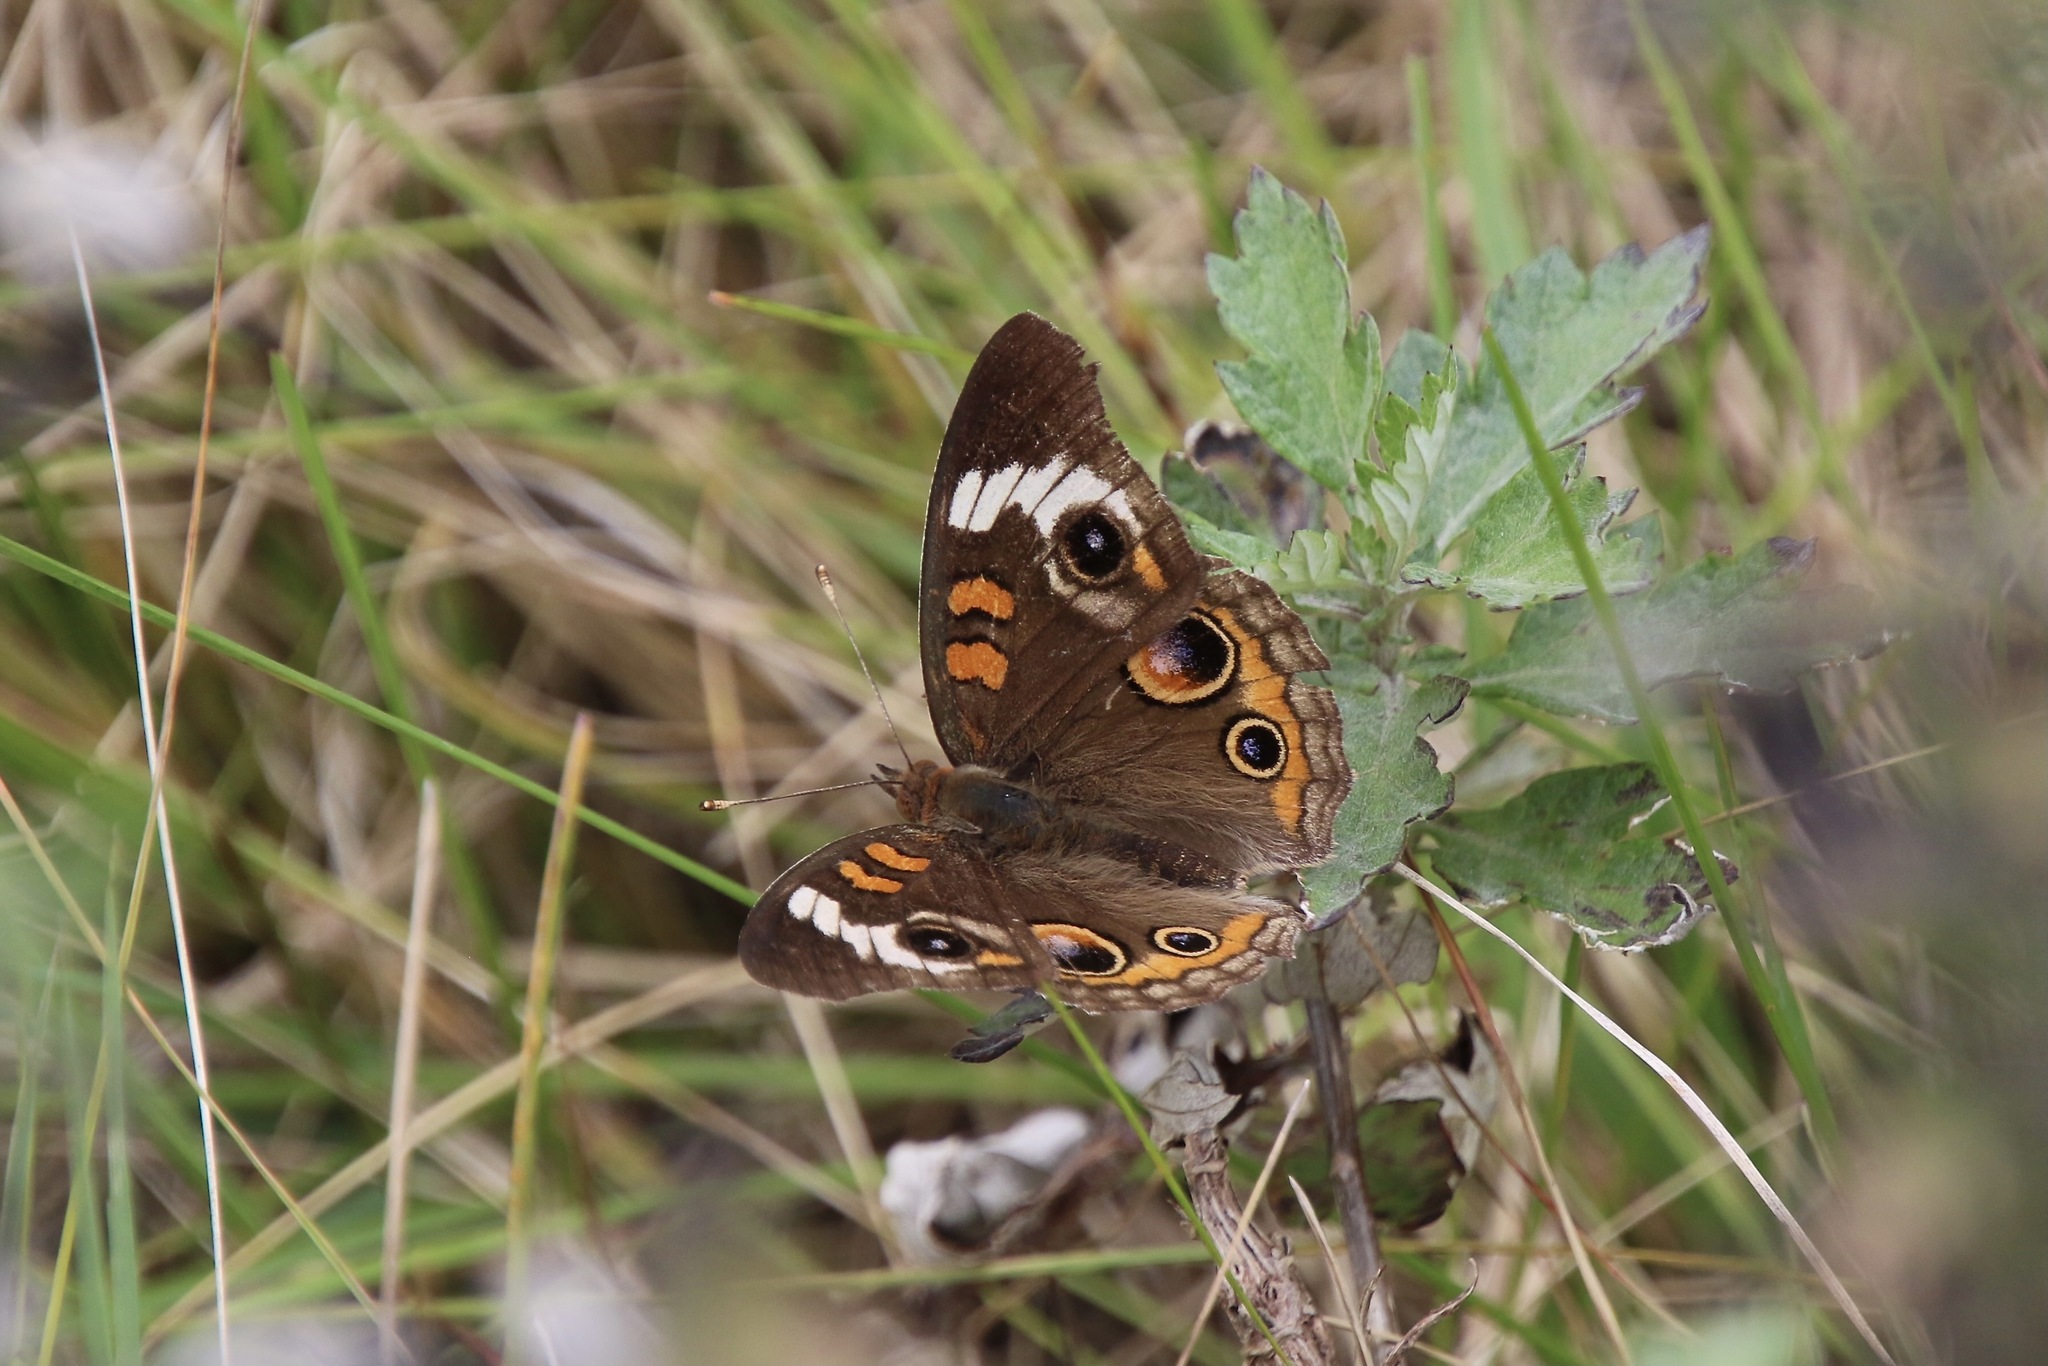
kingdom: Animalia
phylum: Arthropoda
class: Insecta
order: Lepidoptera
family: Nymphalidae
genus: Junonia
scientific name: Junonia coenia
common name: Common buckeye
